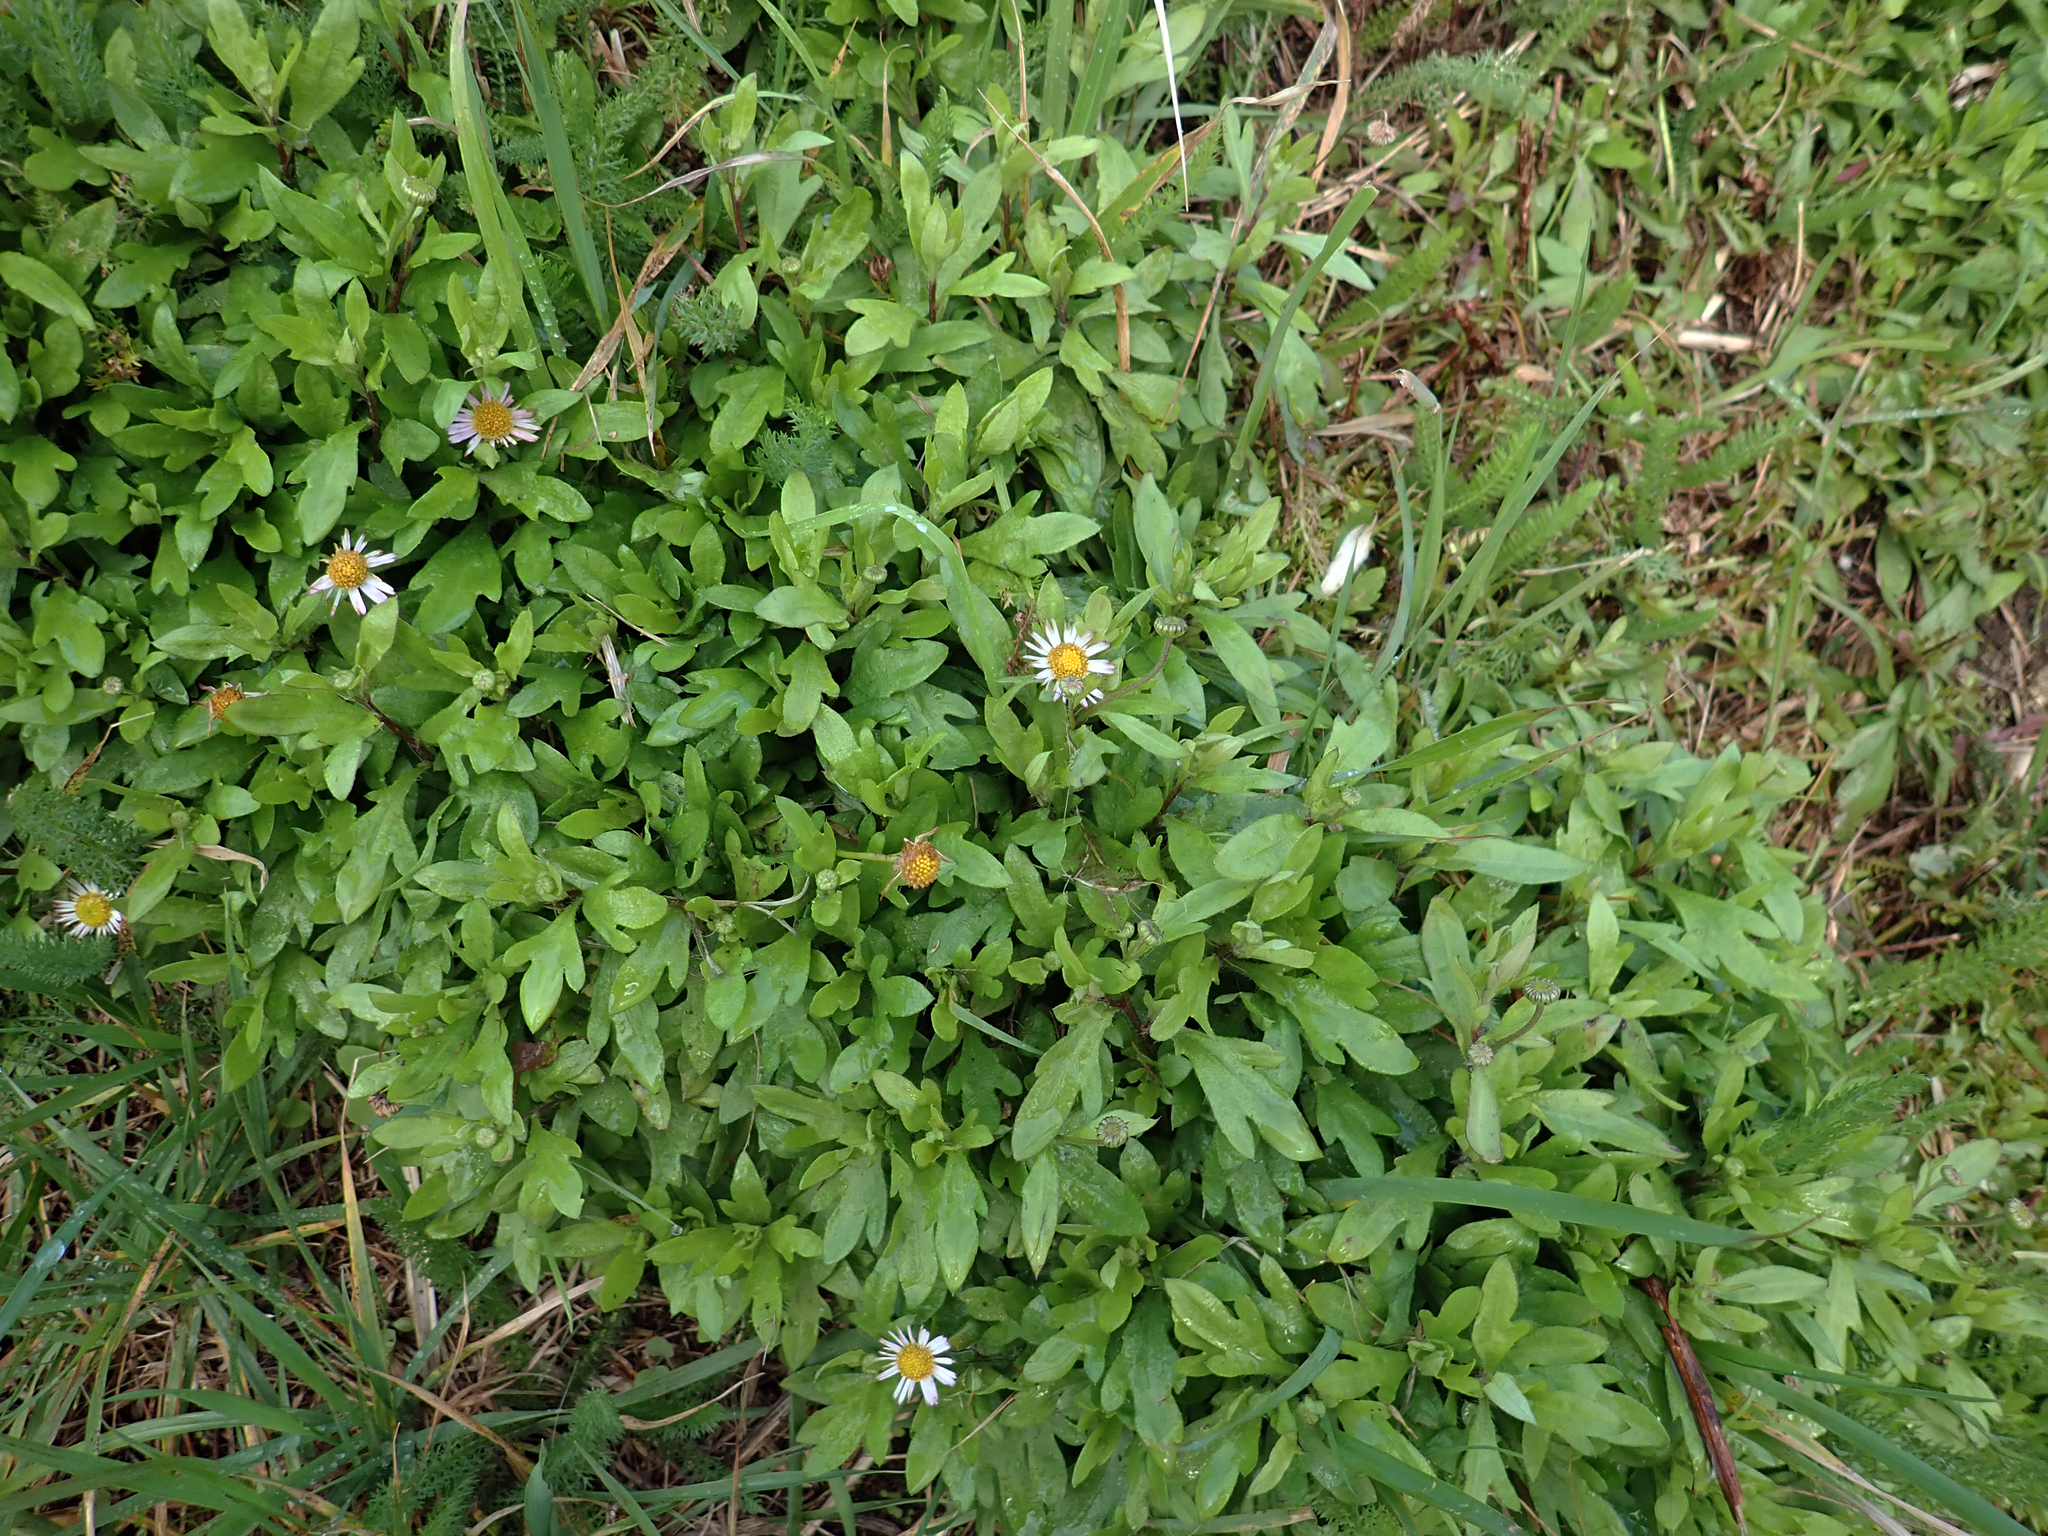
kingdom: Plantae
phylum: Tracheophyta
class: Magnoliopsida
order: Asterales
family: Asteraceae
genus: Erigeron
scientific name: Erigeron karvinskianus
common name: Mexican fleabane
